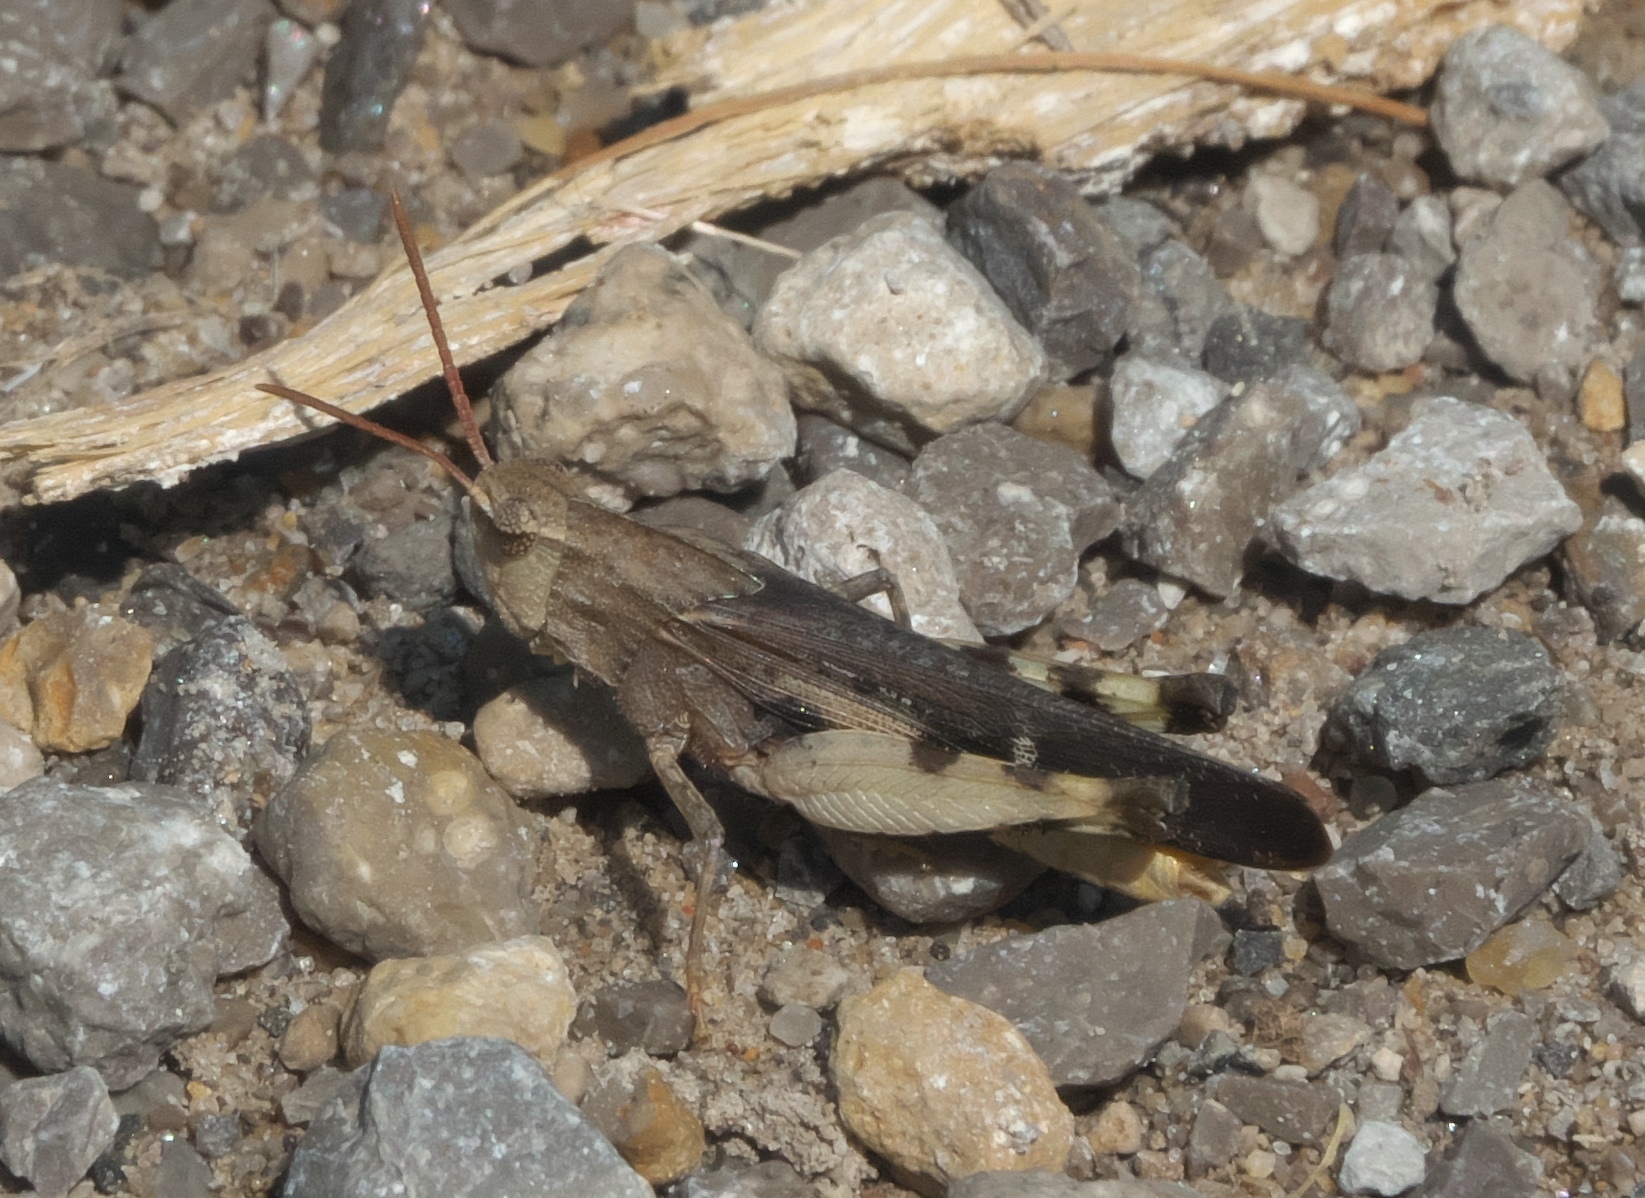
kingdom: Animalia
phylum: Arthropoda
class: Insecta
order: Orthoptera
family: Acrididae
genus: Chortophaga
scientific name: Chortophaga viridifasciata
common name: Green-striped grasshopper
